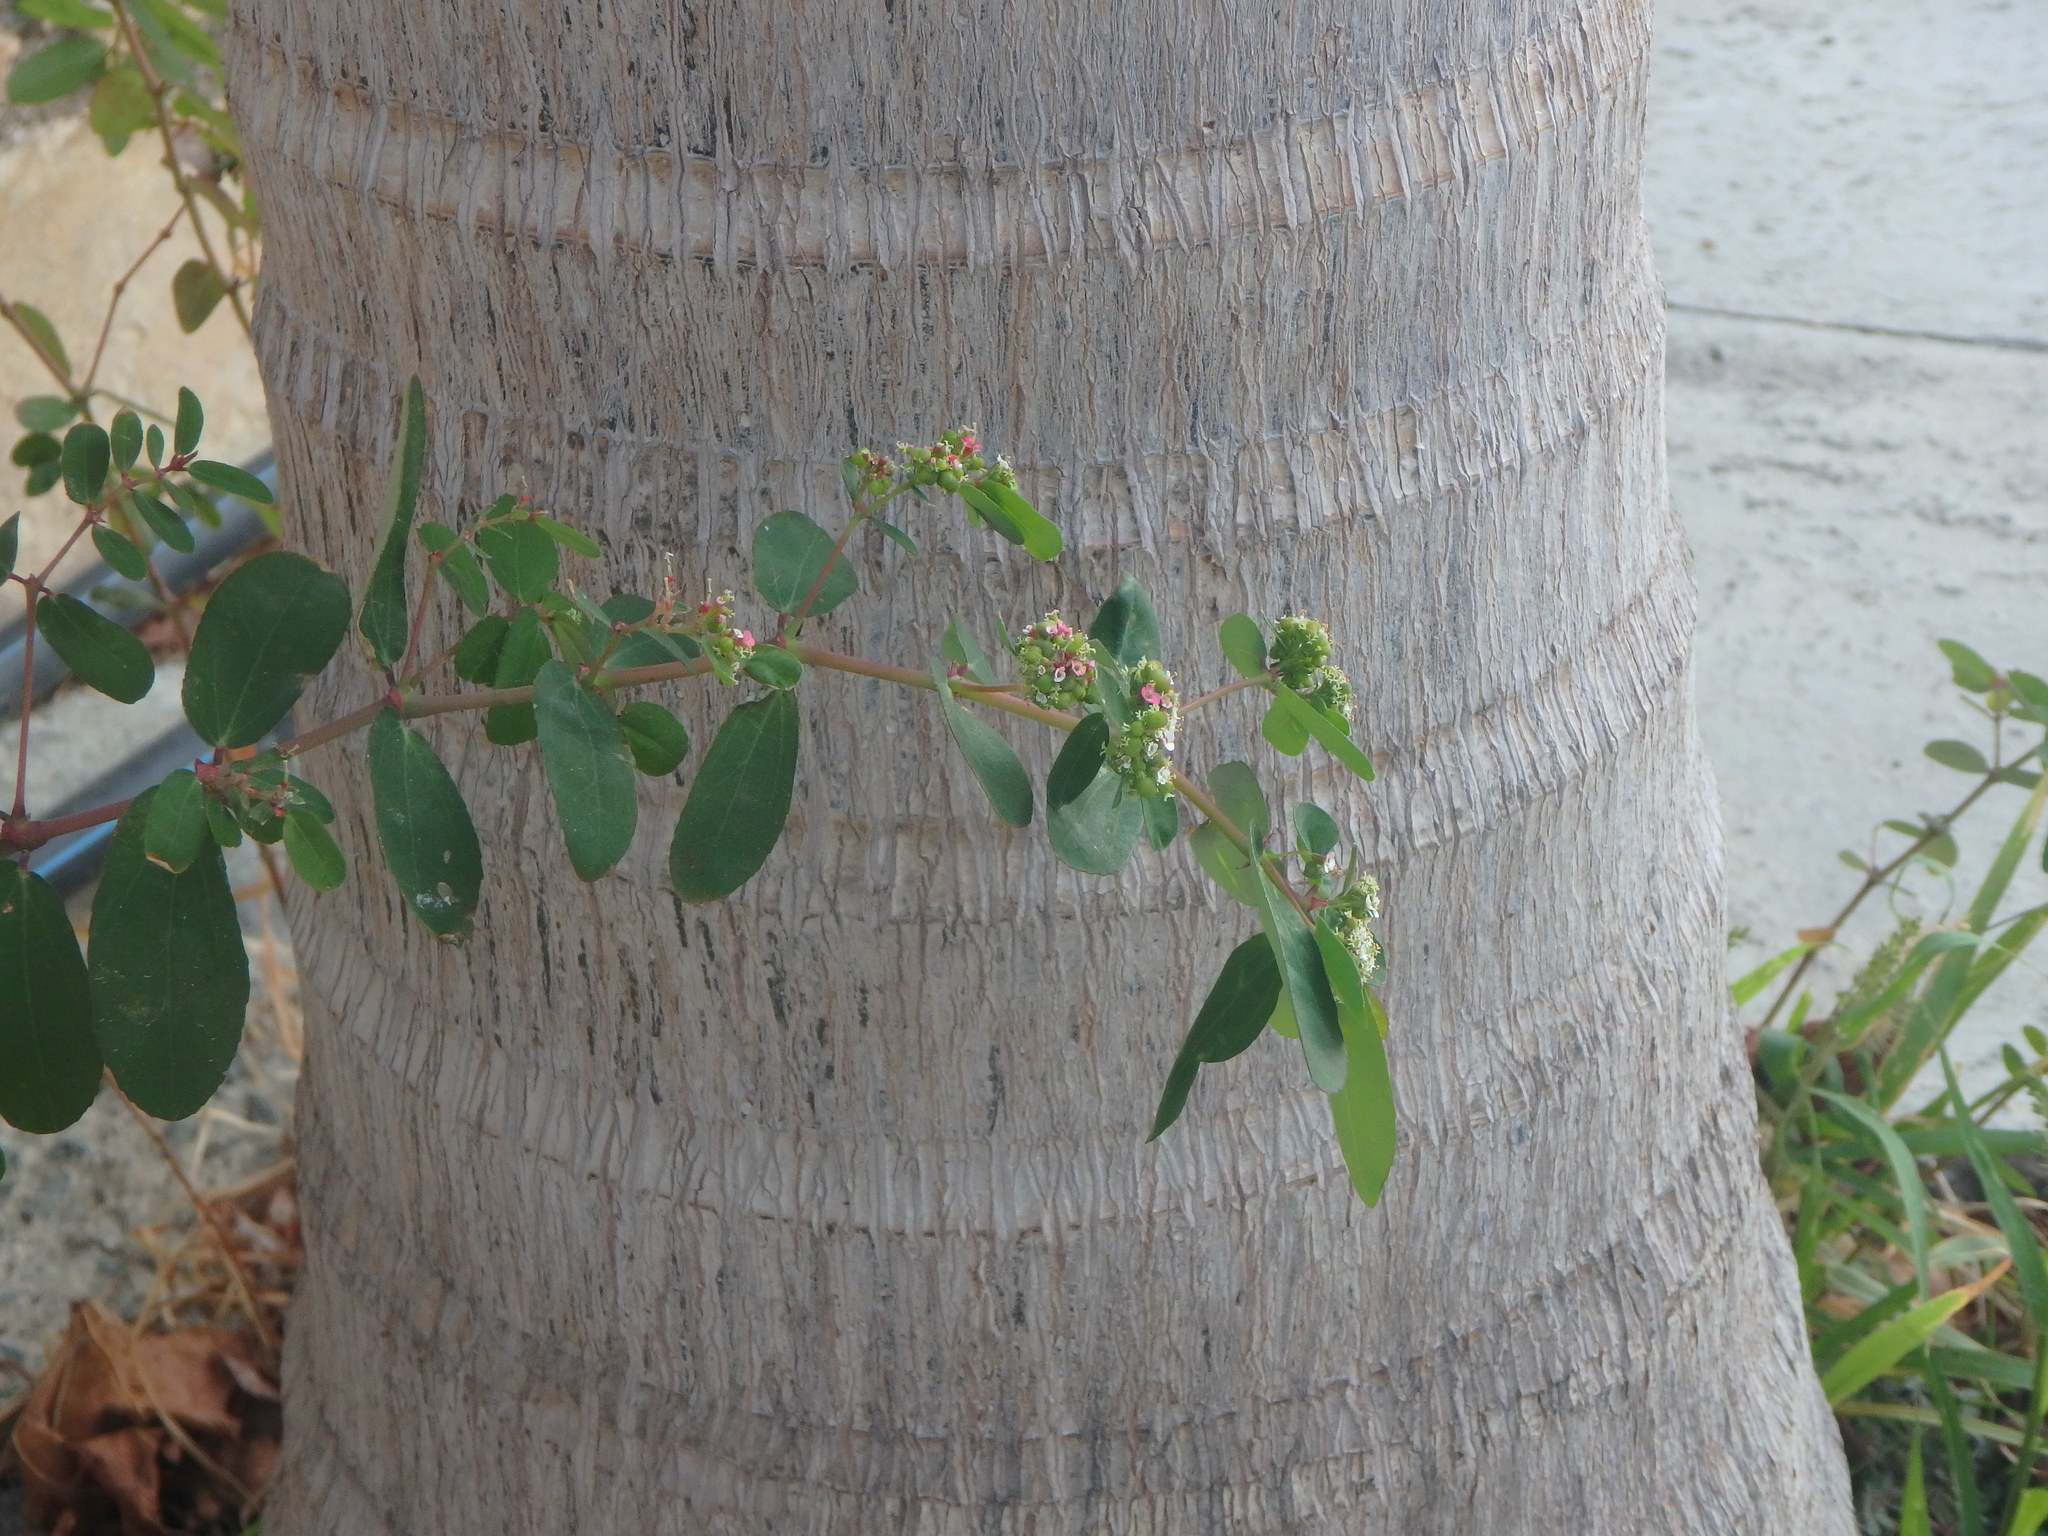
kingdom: Plantae
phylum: Tracheophyta
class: Magnoliopsida
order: Malpighiales
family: Euphorbiaceae
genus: Euphorbia
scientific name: Euphorbia hypericifolia
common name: Graceful sandmat
